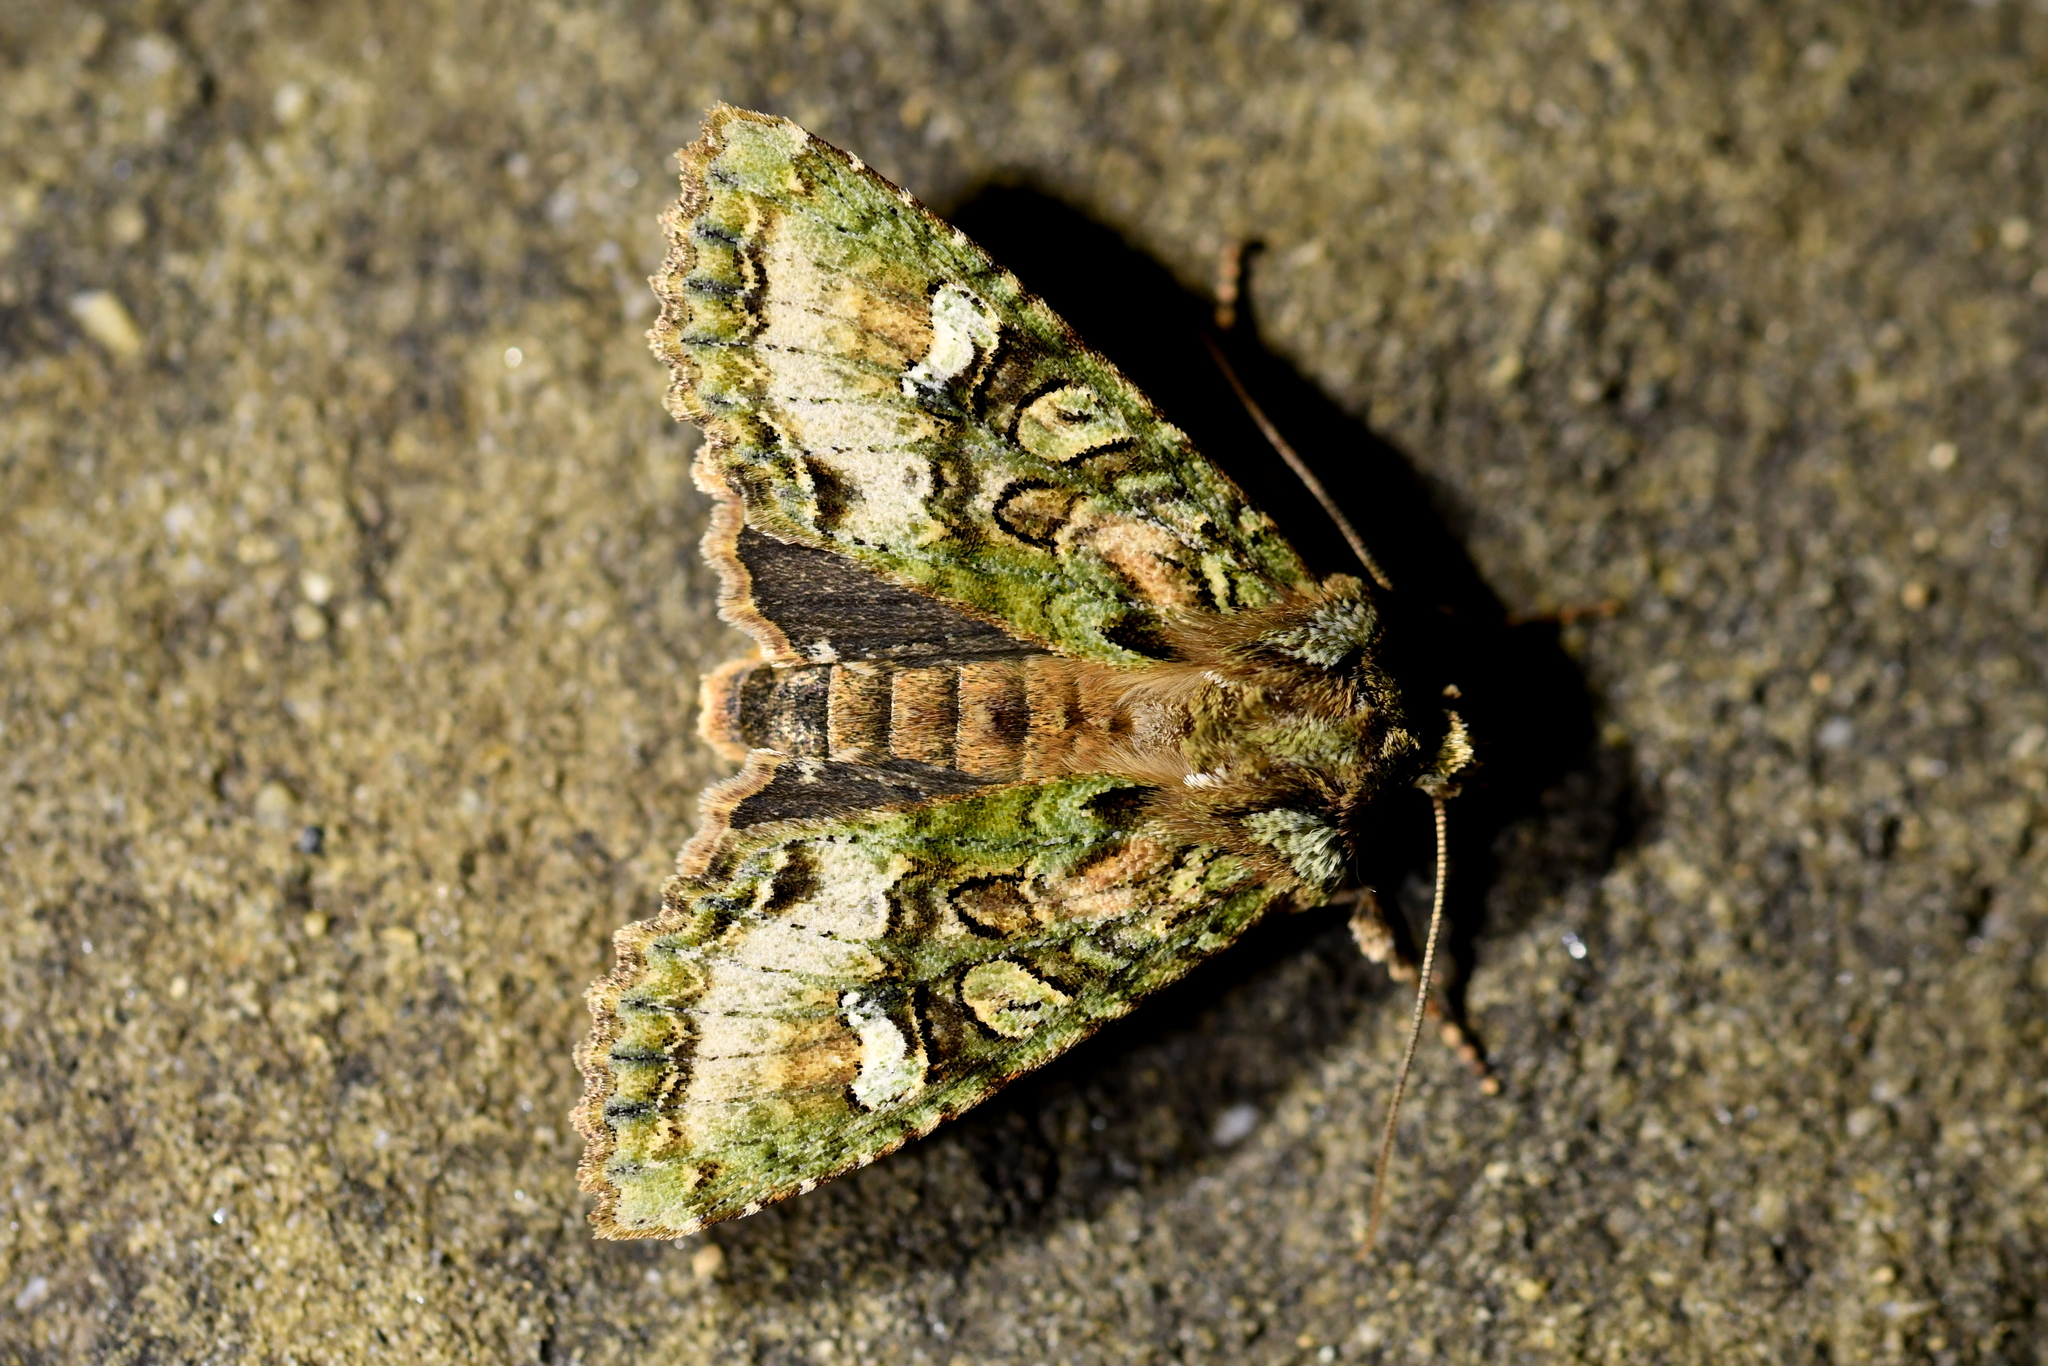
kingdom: Animalia
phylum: Arthropoda
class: Insecta
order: Lepidoptera
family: Noctuidae
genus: Meterana
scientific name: Meterana
